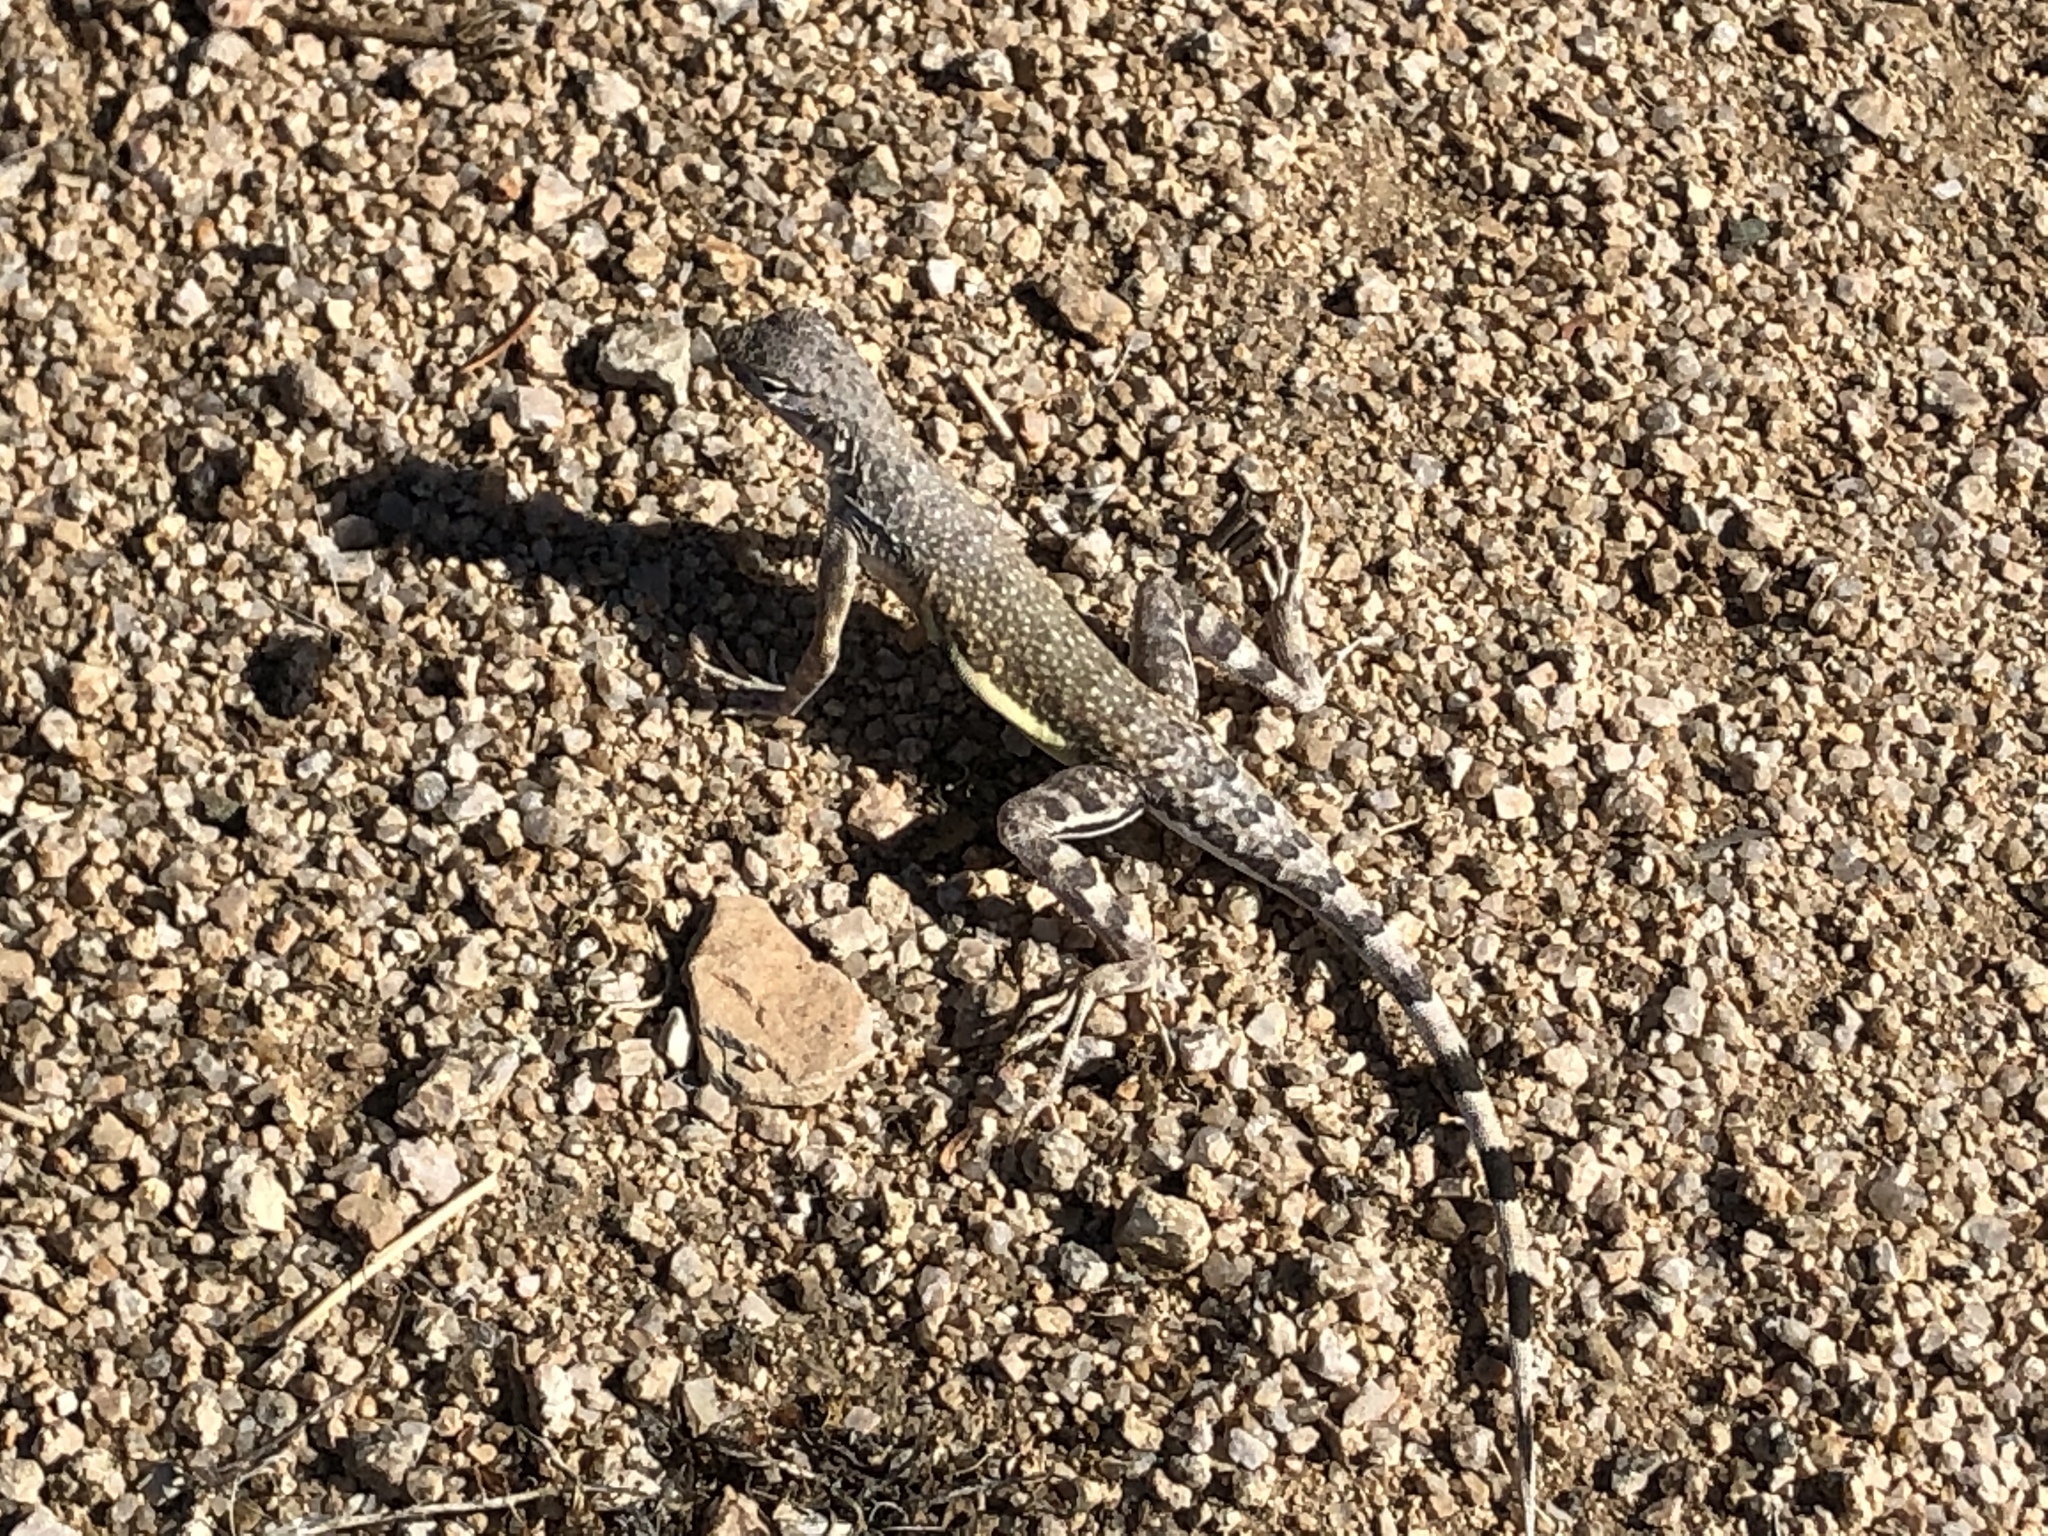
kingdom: Animalia
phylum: Chordata
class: Squamata
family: Phrynosomatidae
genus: Callisaurus
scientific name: Callisaurus draconoides
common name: Zebra-tailed lizard
